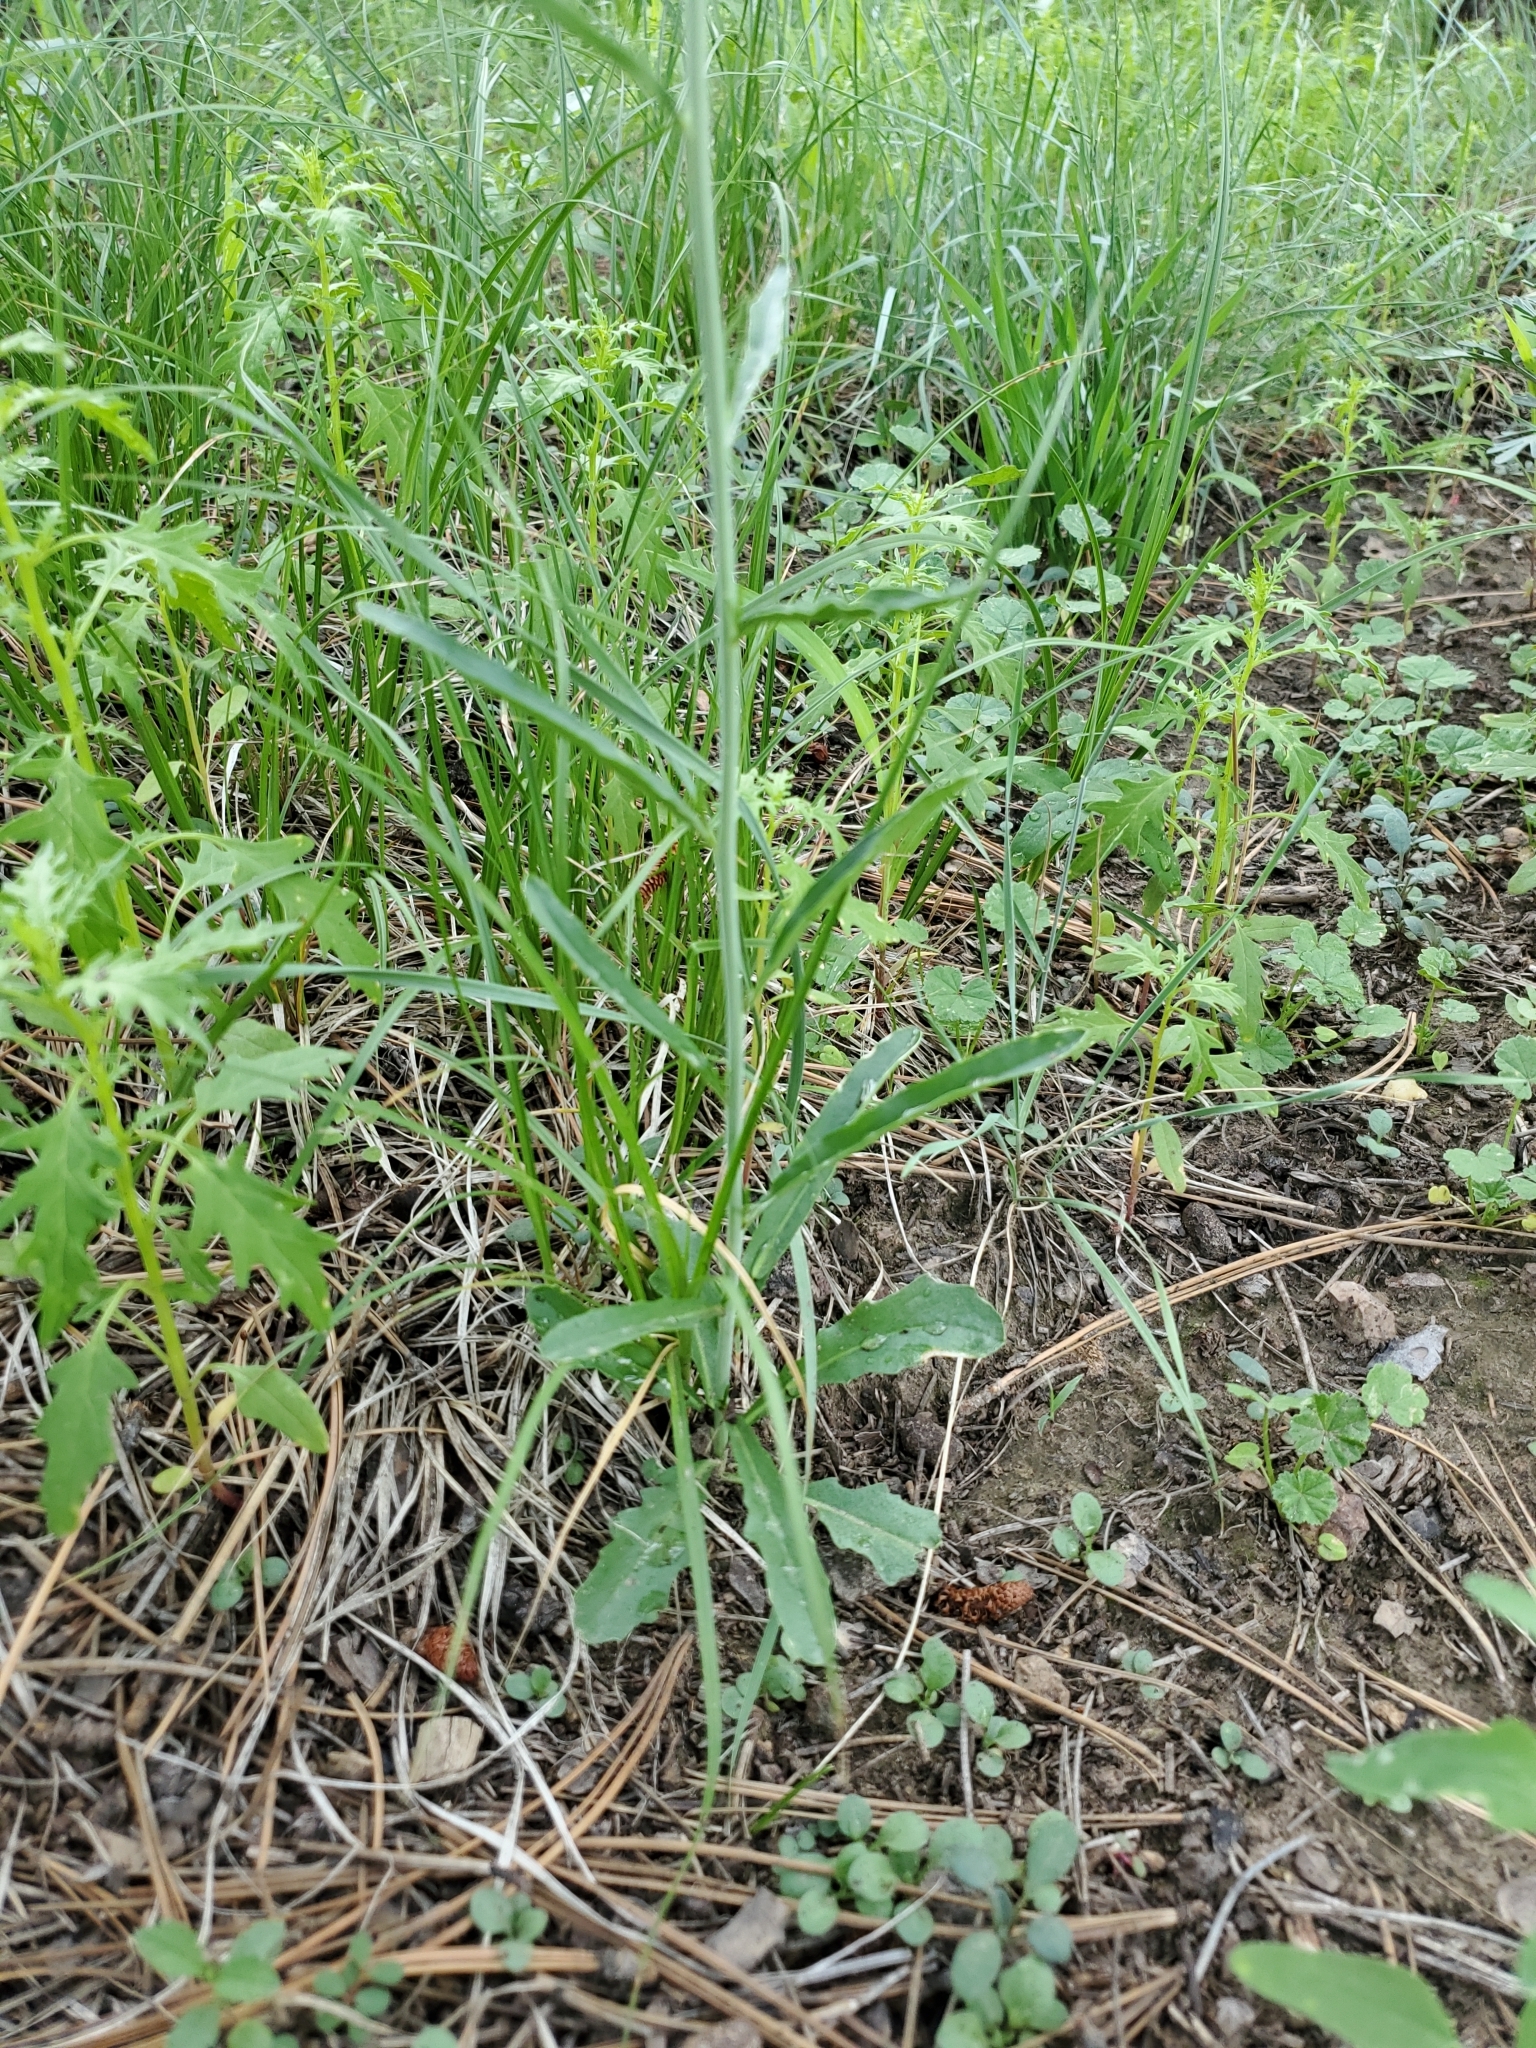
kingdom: Plantae
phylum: Tracheophyta
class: Magnoliopsida
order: Brassicales
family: Brassicaceae
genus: Pennellia
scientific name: Pennellia longifolia
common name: Longleaf mock thelypody
